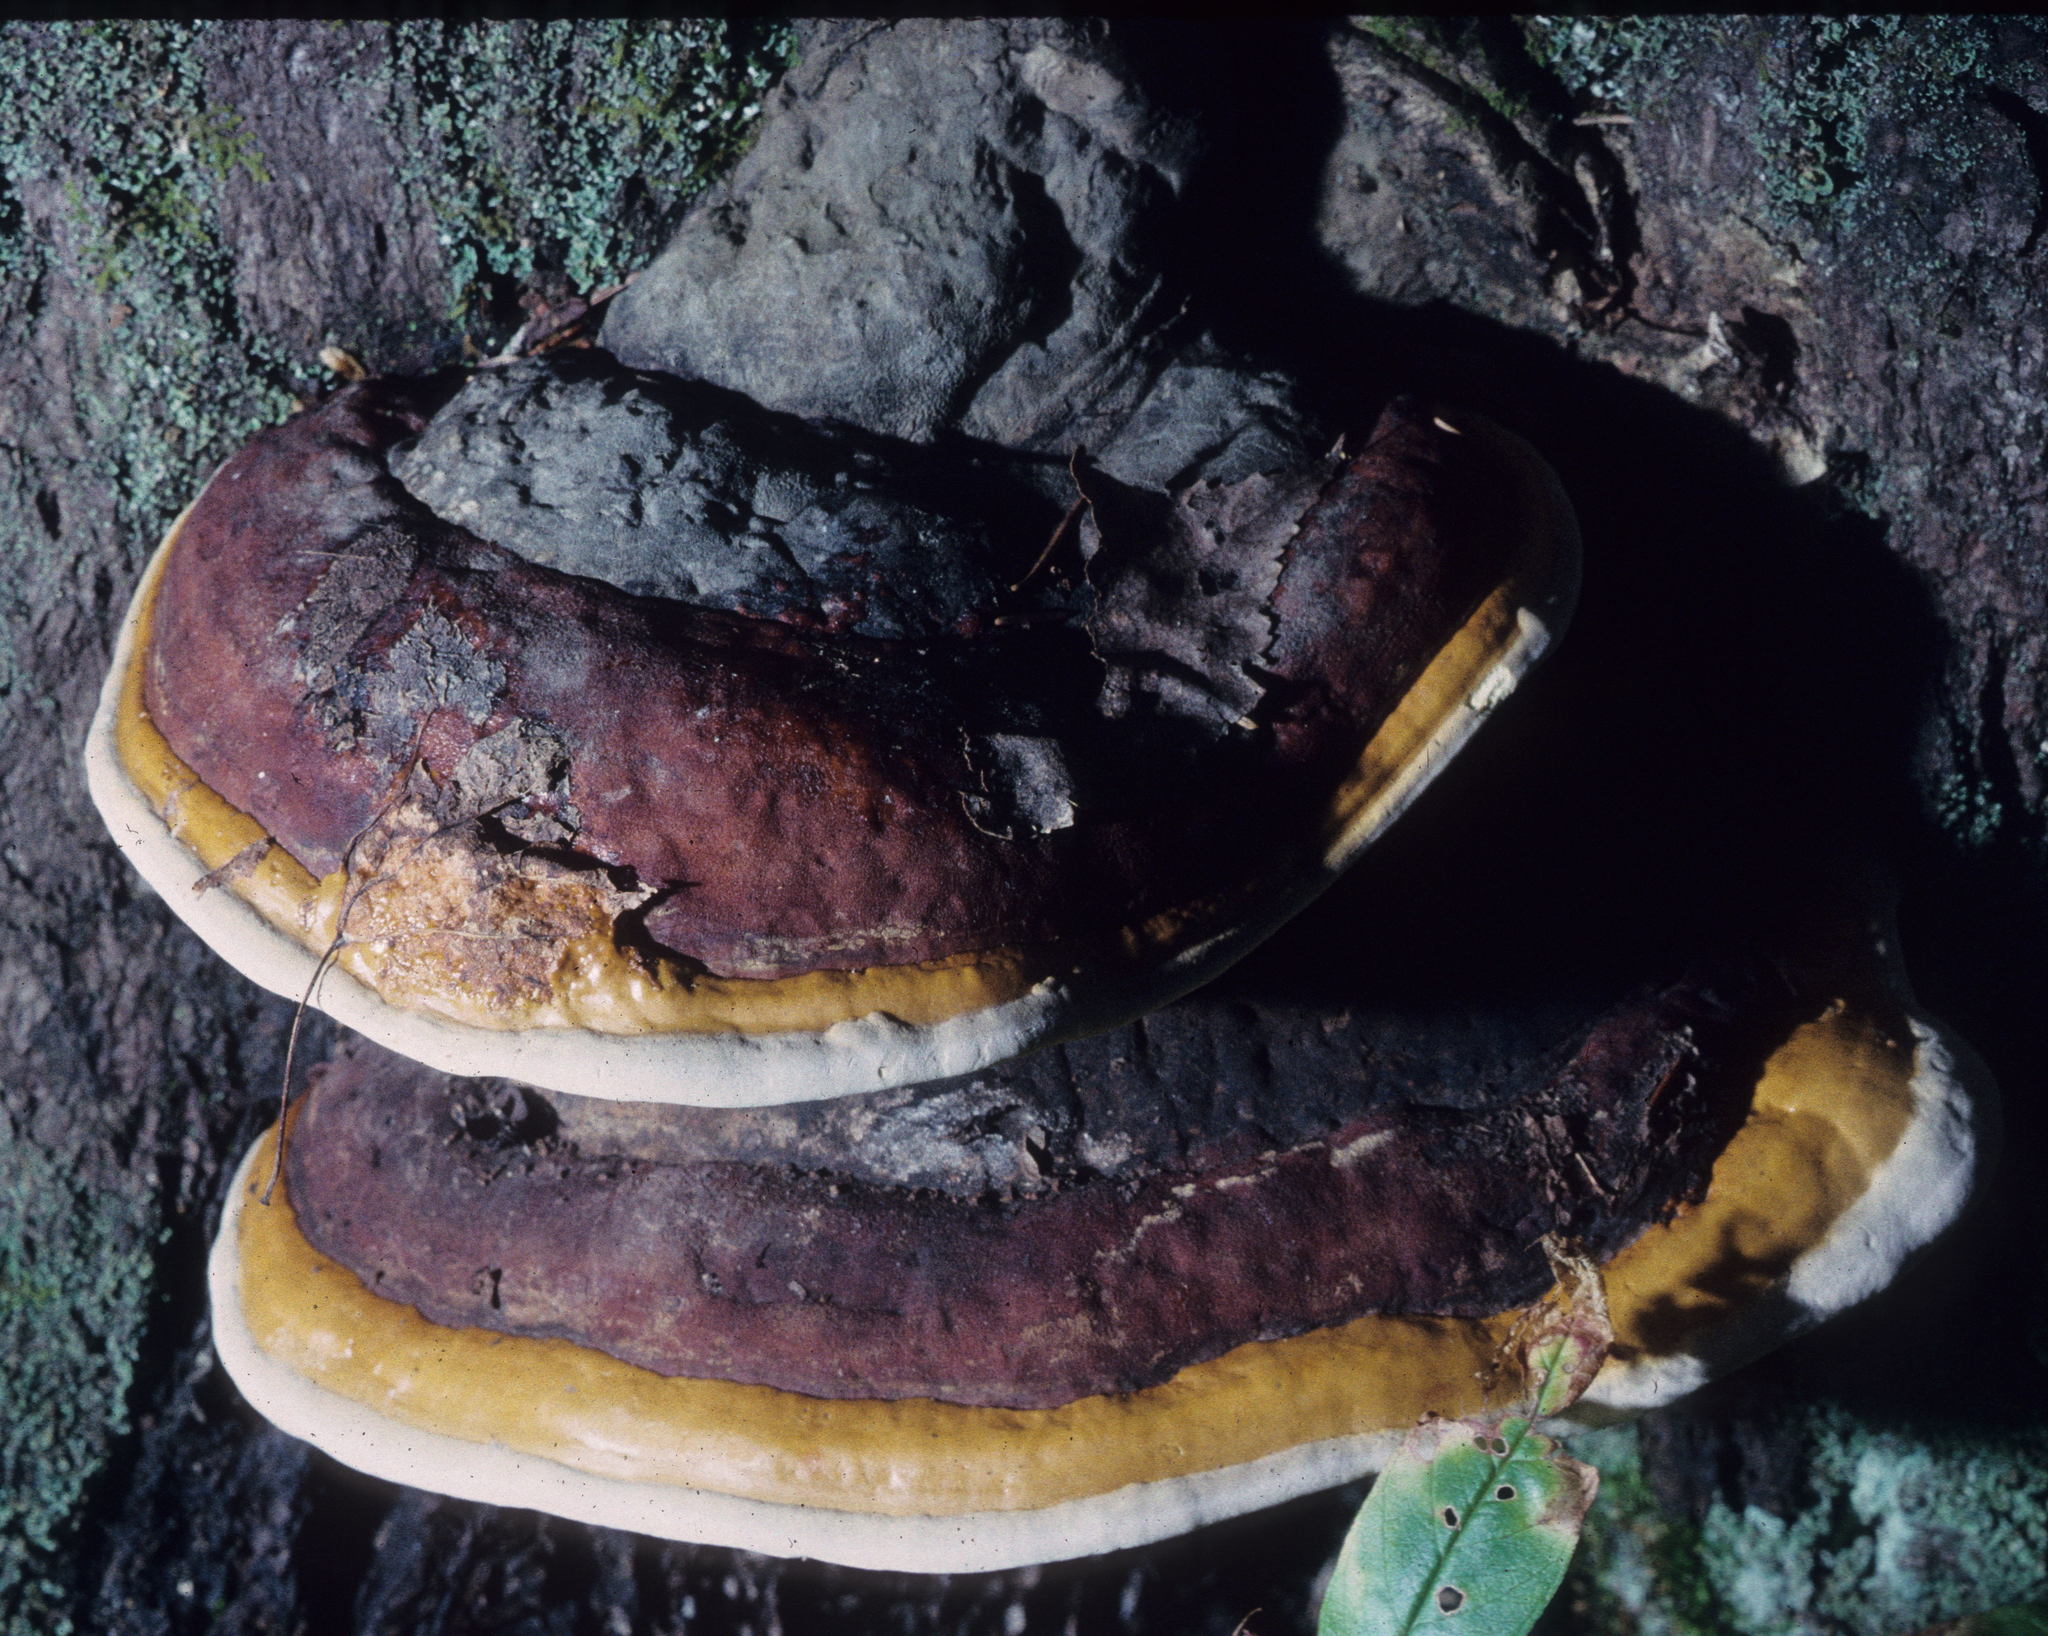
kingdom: Fungi
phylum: Basidiomycota
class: Agaricomycetes
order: Polyporales
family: Fomitopsidaceae
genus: Fomitopsis
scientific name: Fomitopsis mounceae
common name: Northern red belt
